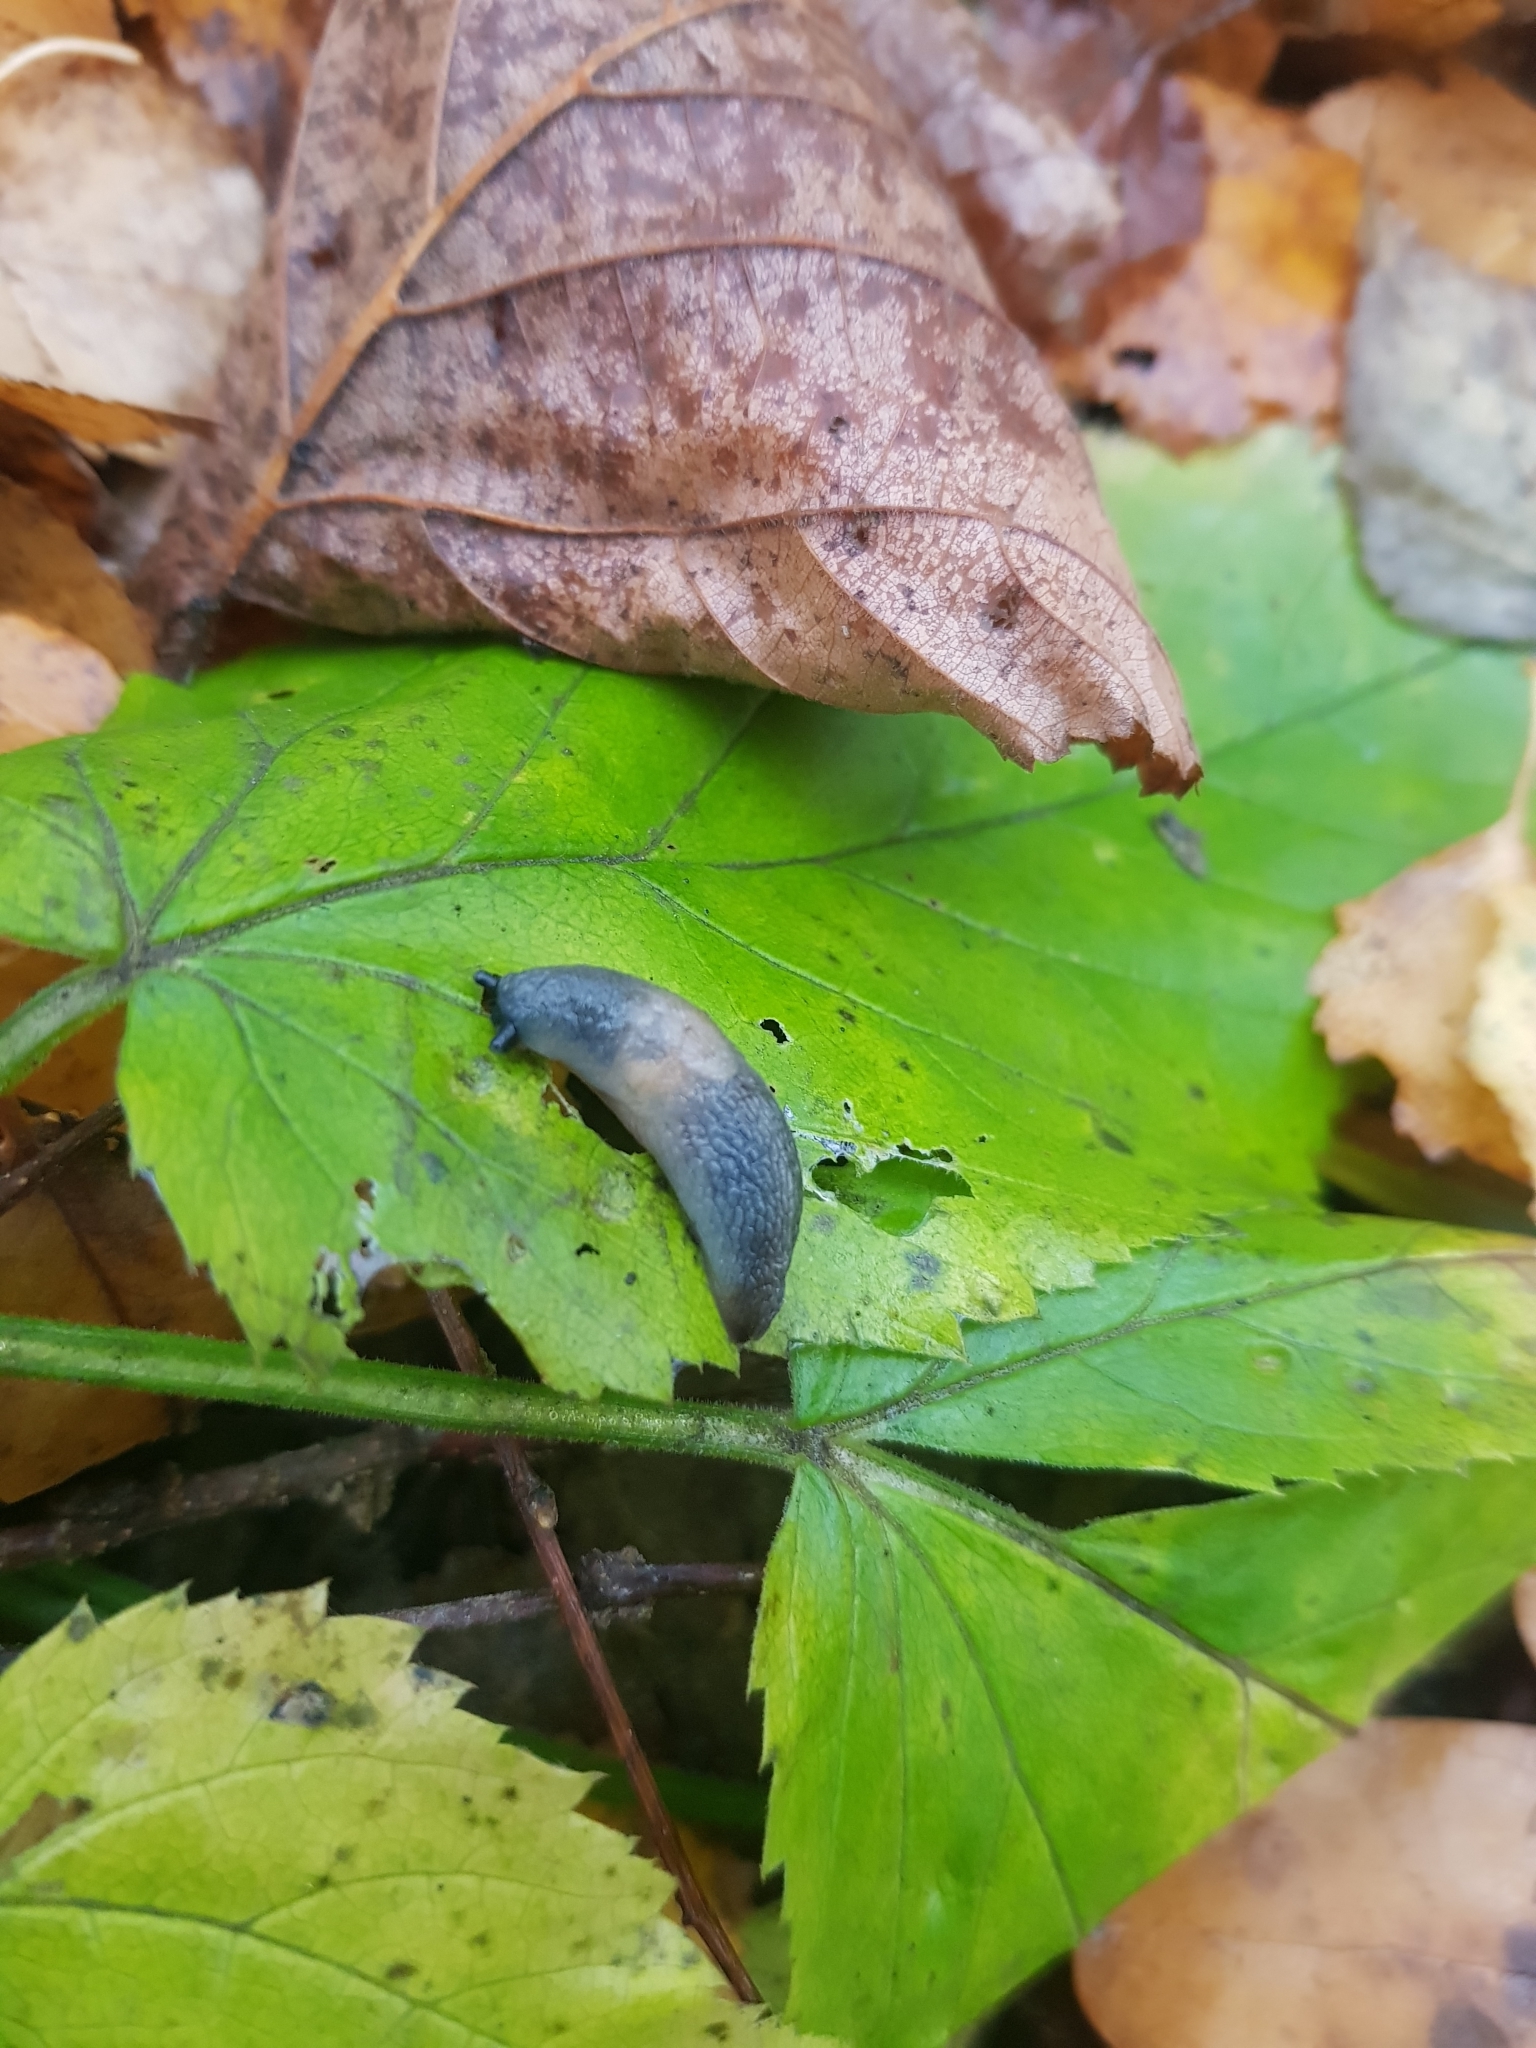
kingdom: Animalia
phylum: Mollusca
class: Gastropoda
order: Stylommatophora
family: Agriolimacidae
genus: Krynickillus
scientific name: Krynickillus melanocephalus
